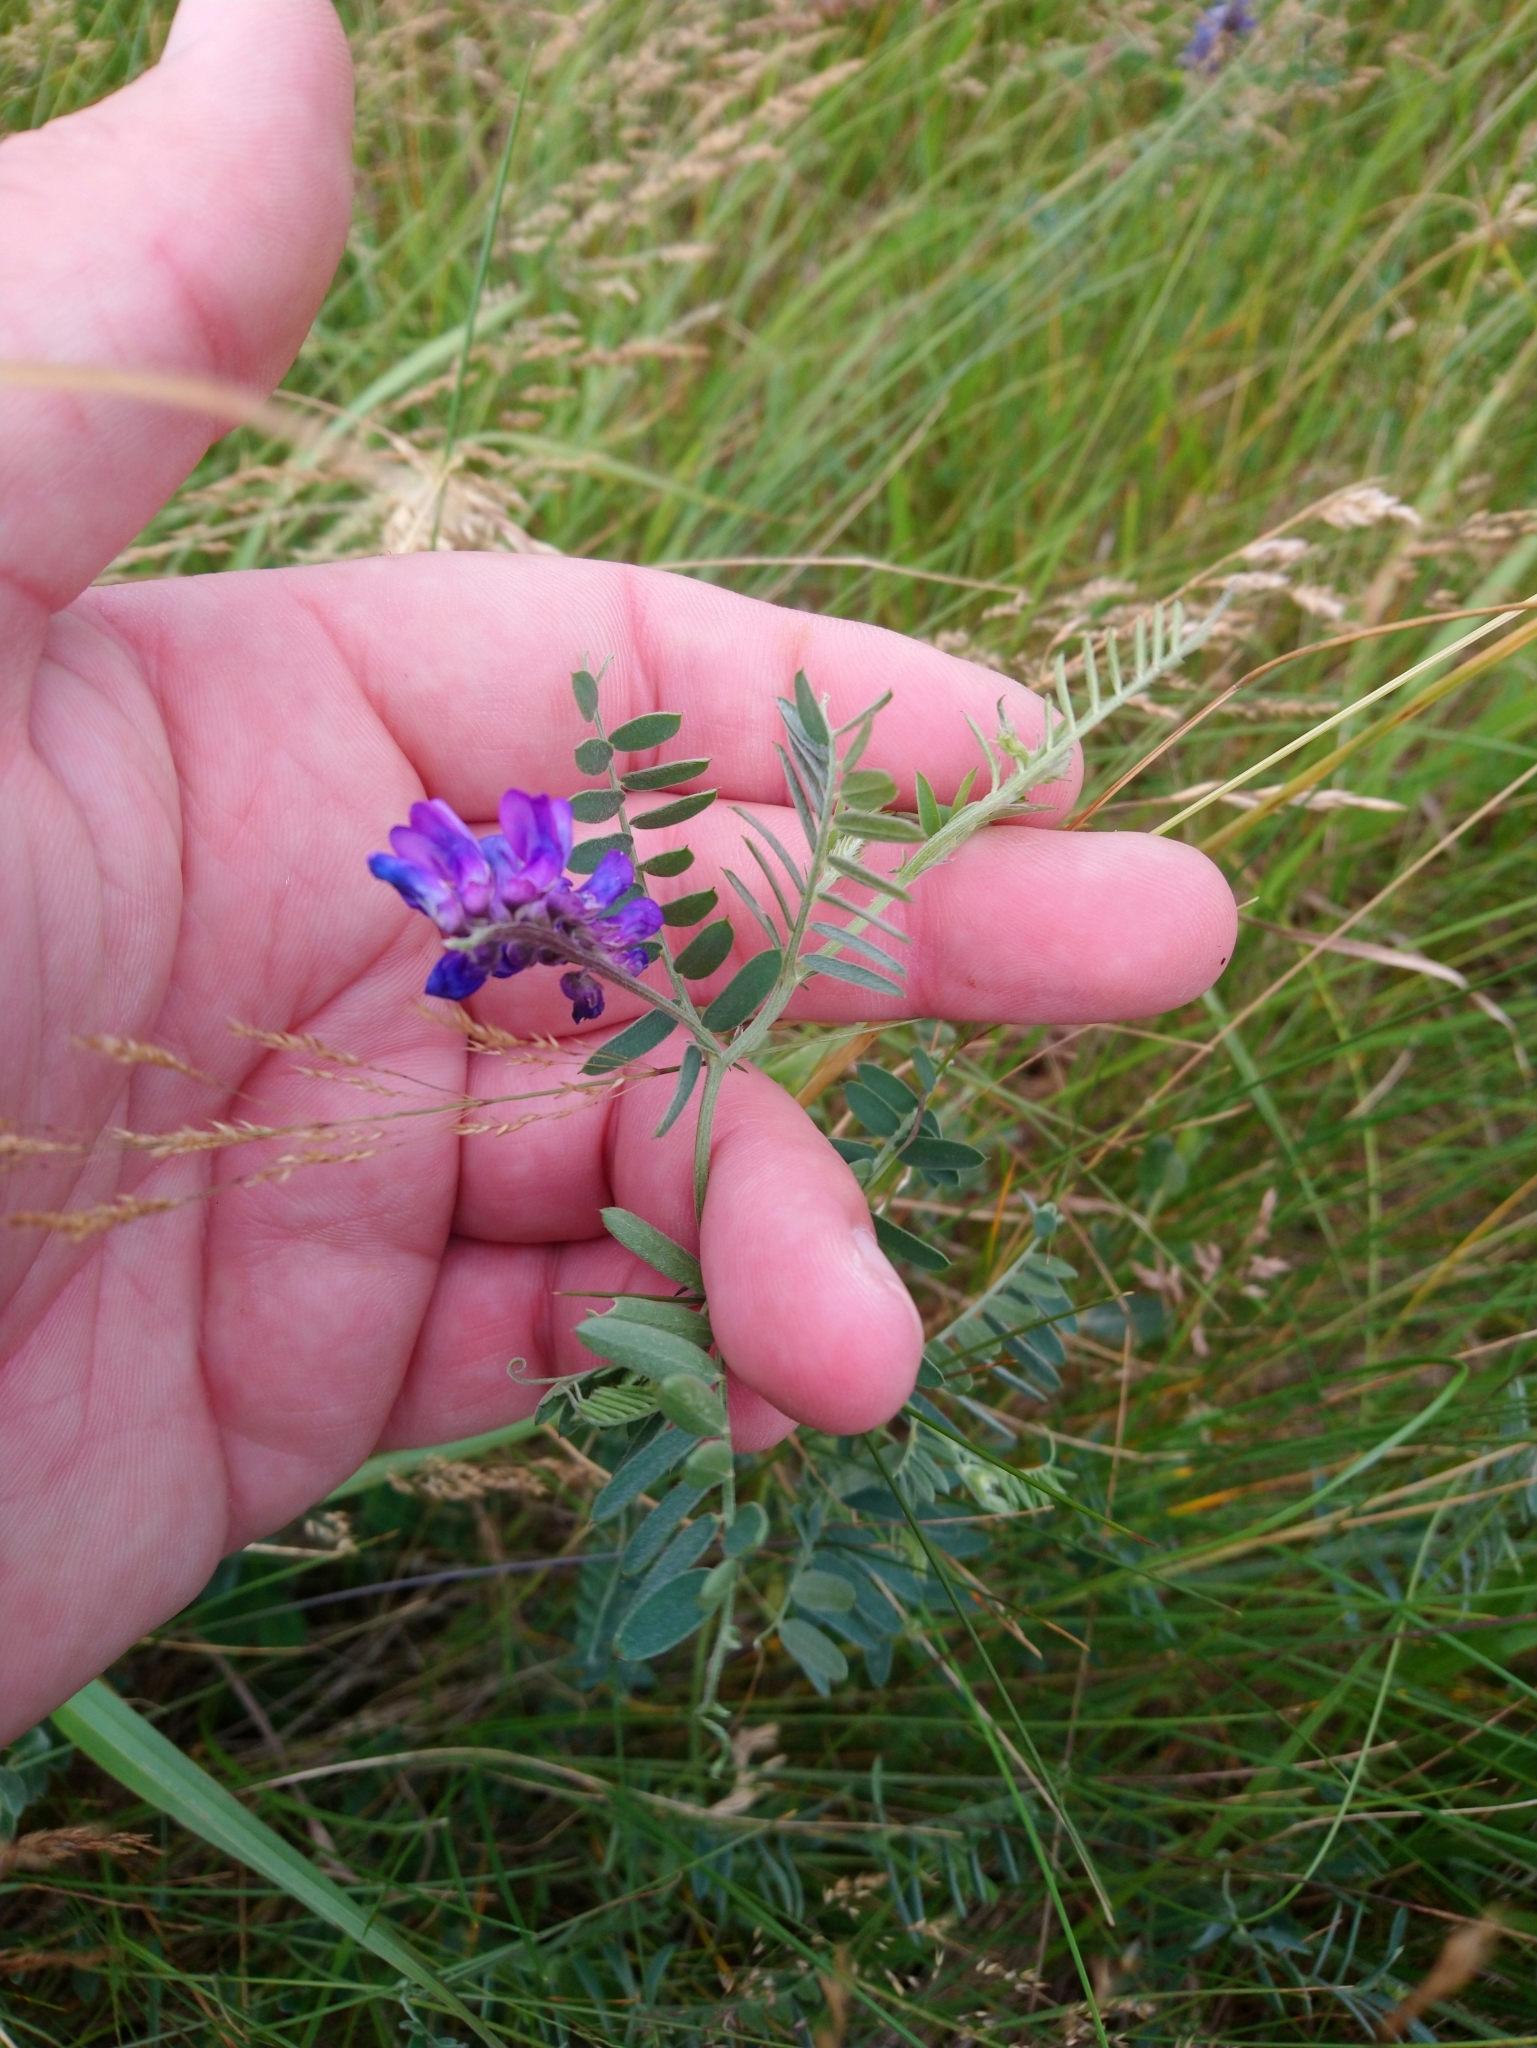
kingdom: Plantae
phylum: Tracheophyta
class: Magnoliopsida
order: Fabales
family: Fabaceae
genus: Vicia
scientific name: Vicia cracca
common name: Bird vetch
